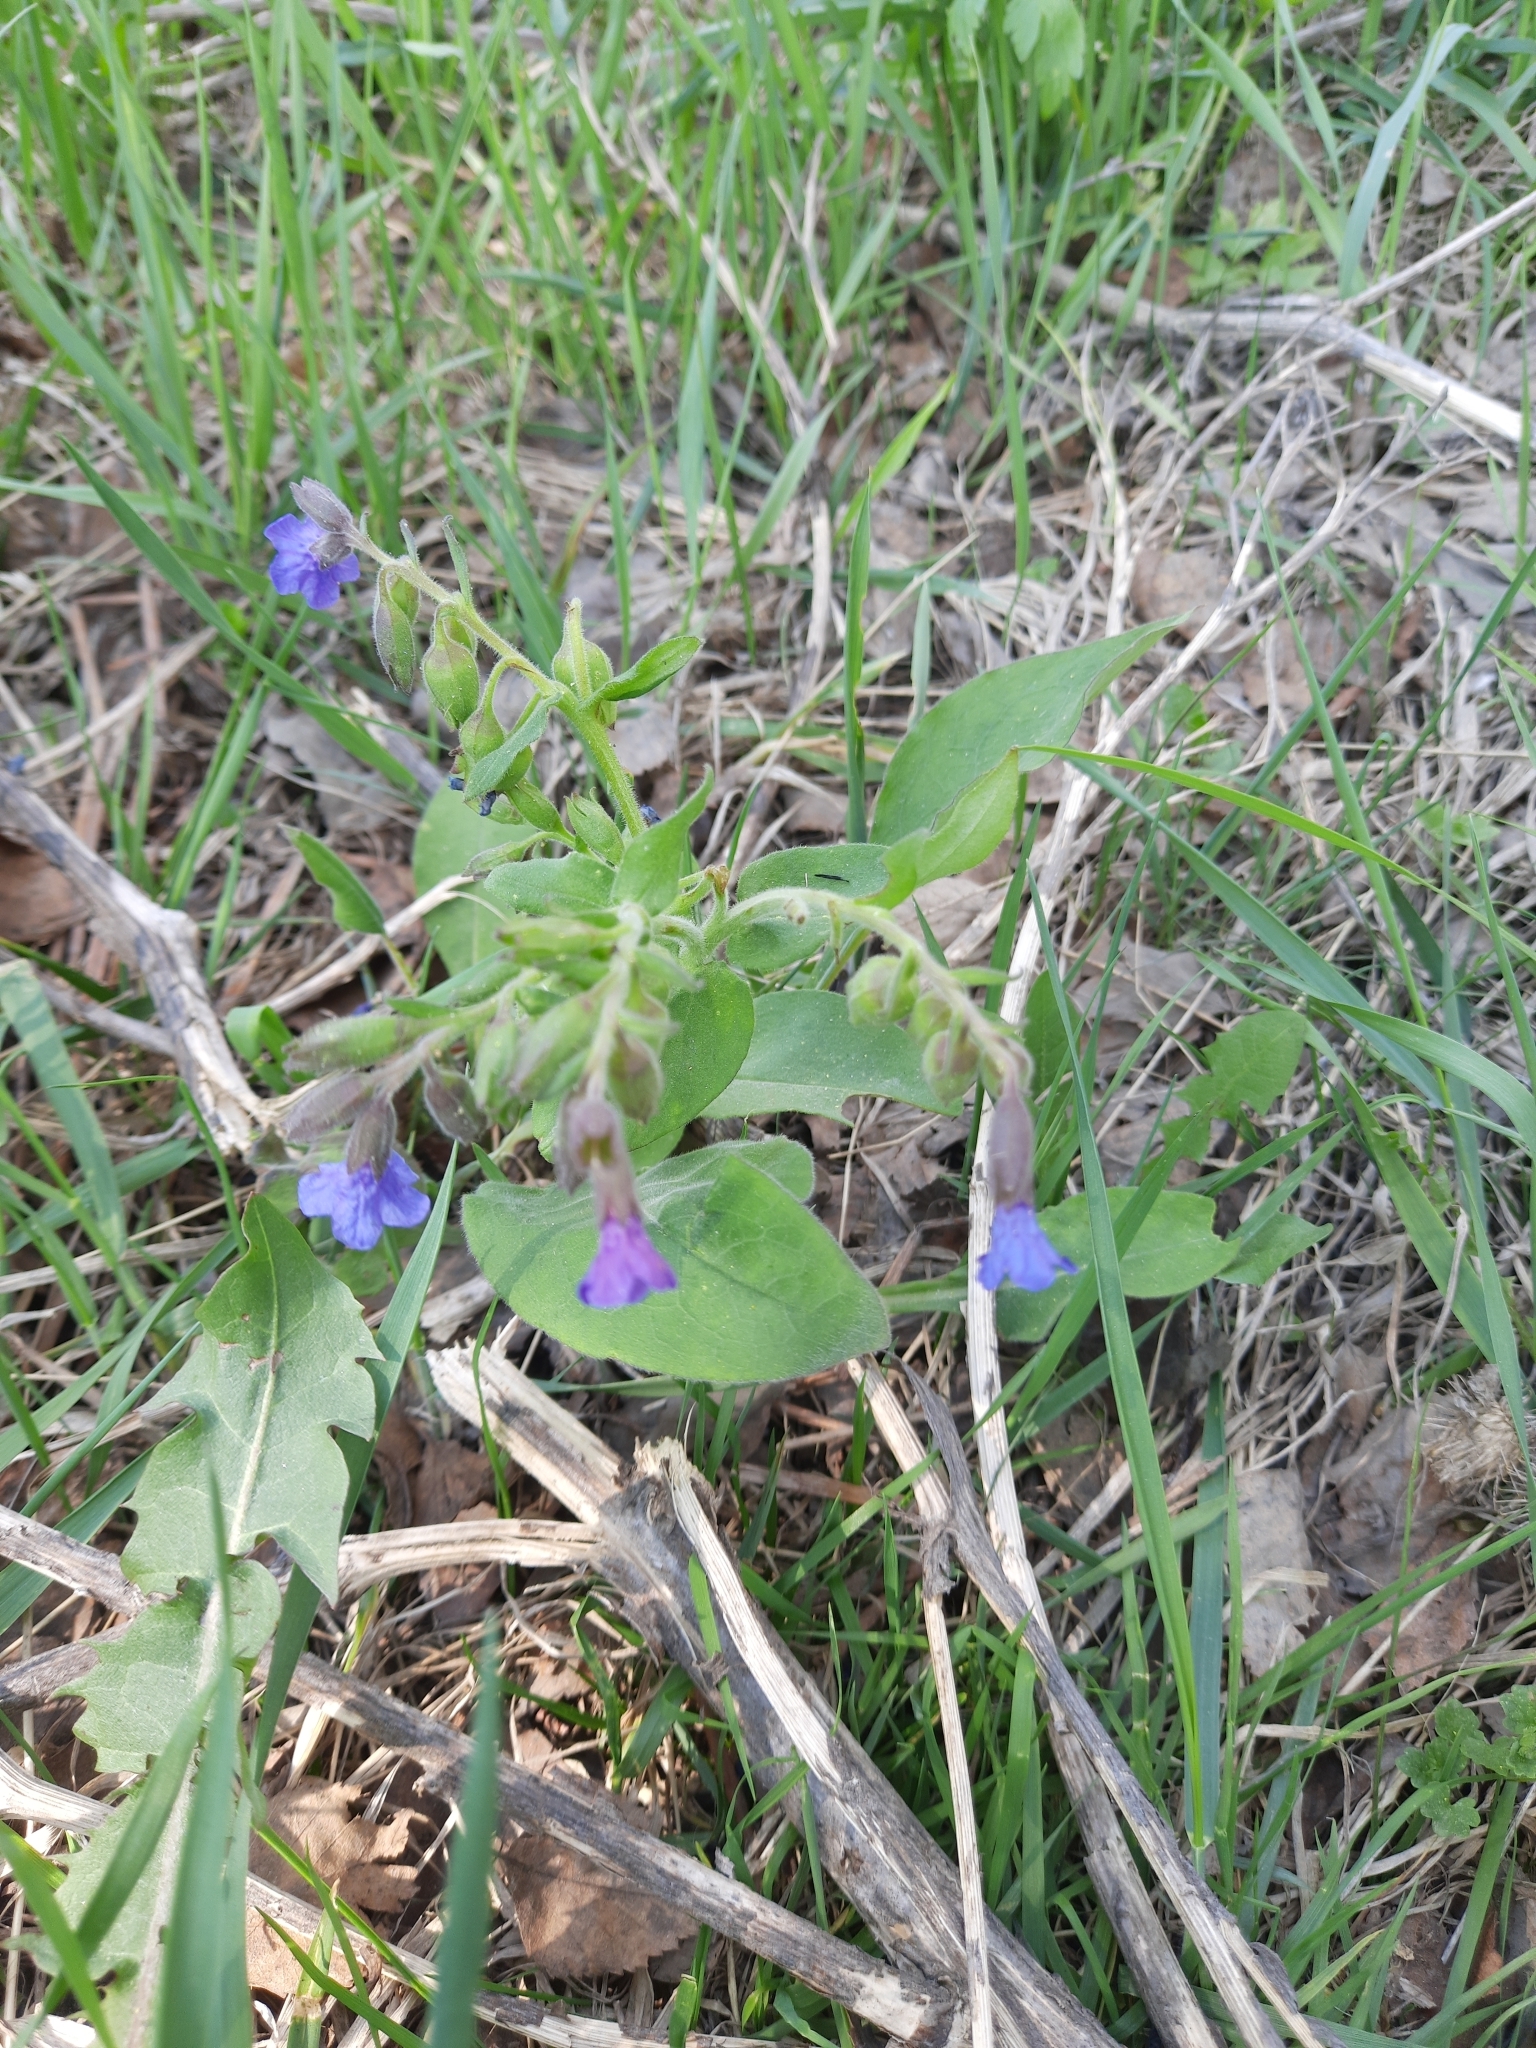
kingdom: Plantae
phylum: Tracheophyta
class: Magnoliopsida
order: Boraginales
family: Boraginaceae
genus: Pulmonaria
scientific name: Pulmonaria mollis
